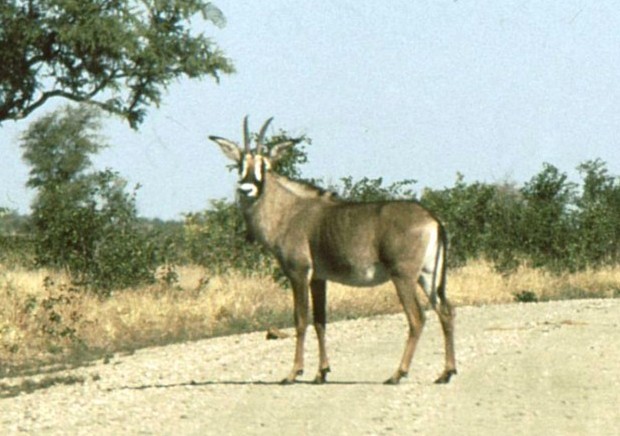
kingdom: Animalia
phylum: Chordata
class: Mammalia
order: Artiodactyla
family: Bovidae
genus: Hippotragus
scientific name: Hippotragus equinus
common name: Roan antelope
